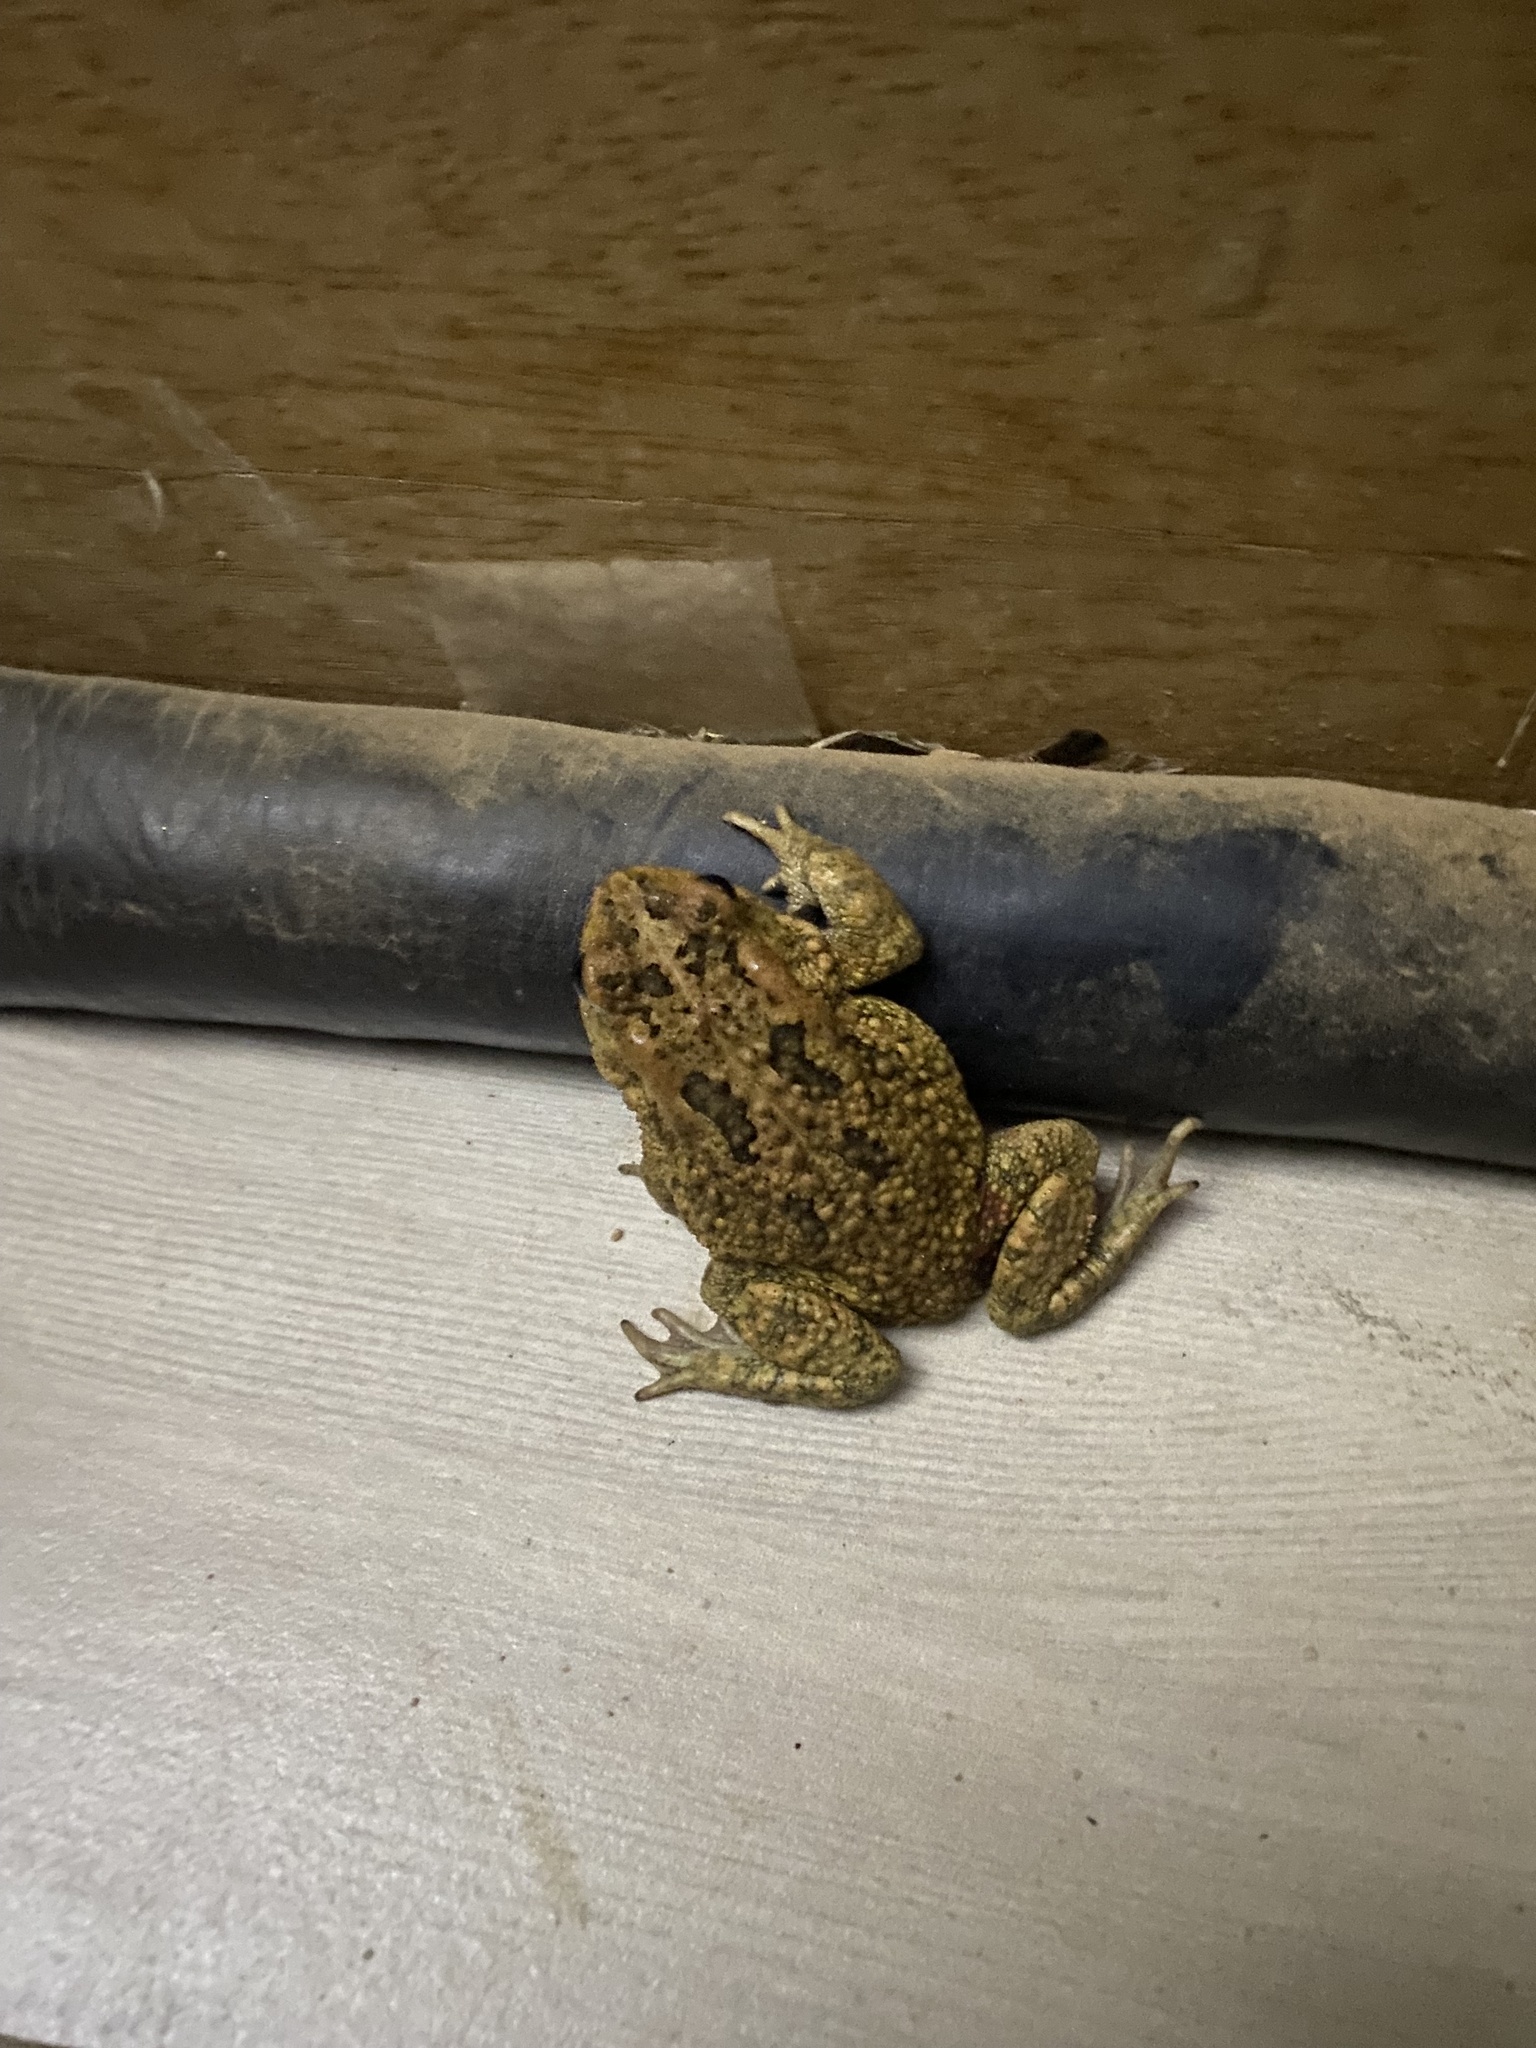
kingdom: Animalia
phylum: Chordata
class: Amphibia
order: Anura
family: Bufonidae
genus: Sclerophrys
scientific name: Sclerophrys gutturalis
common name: African common toad
